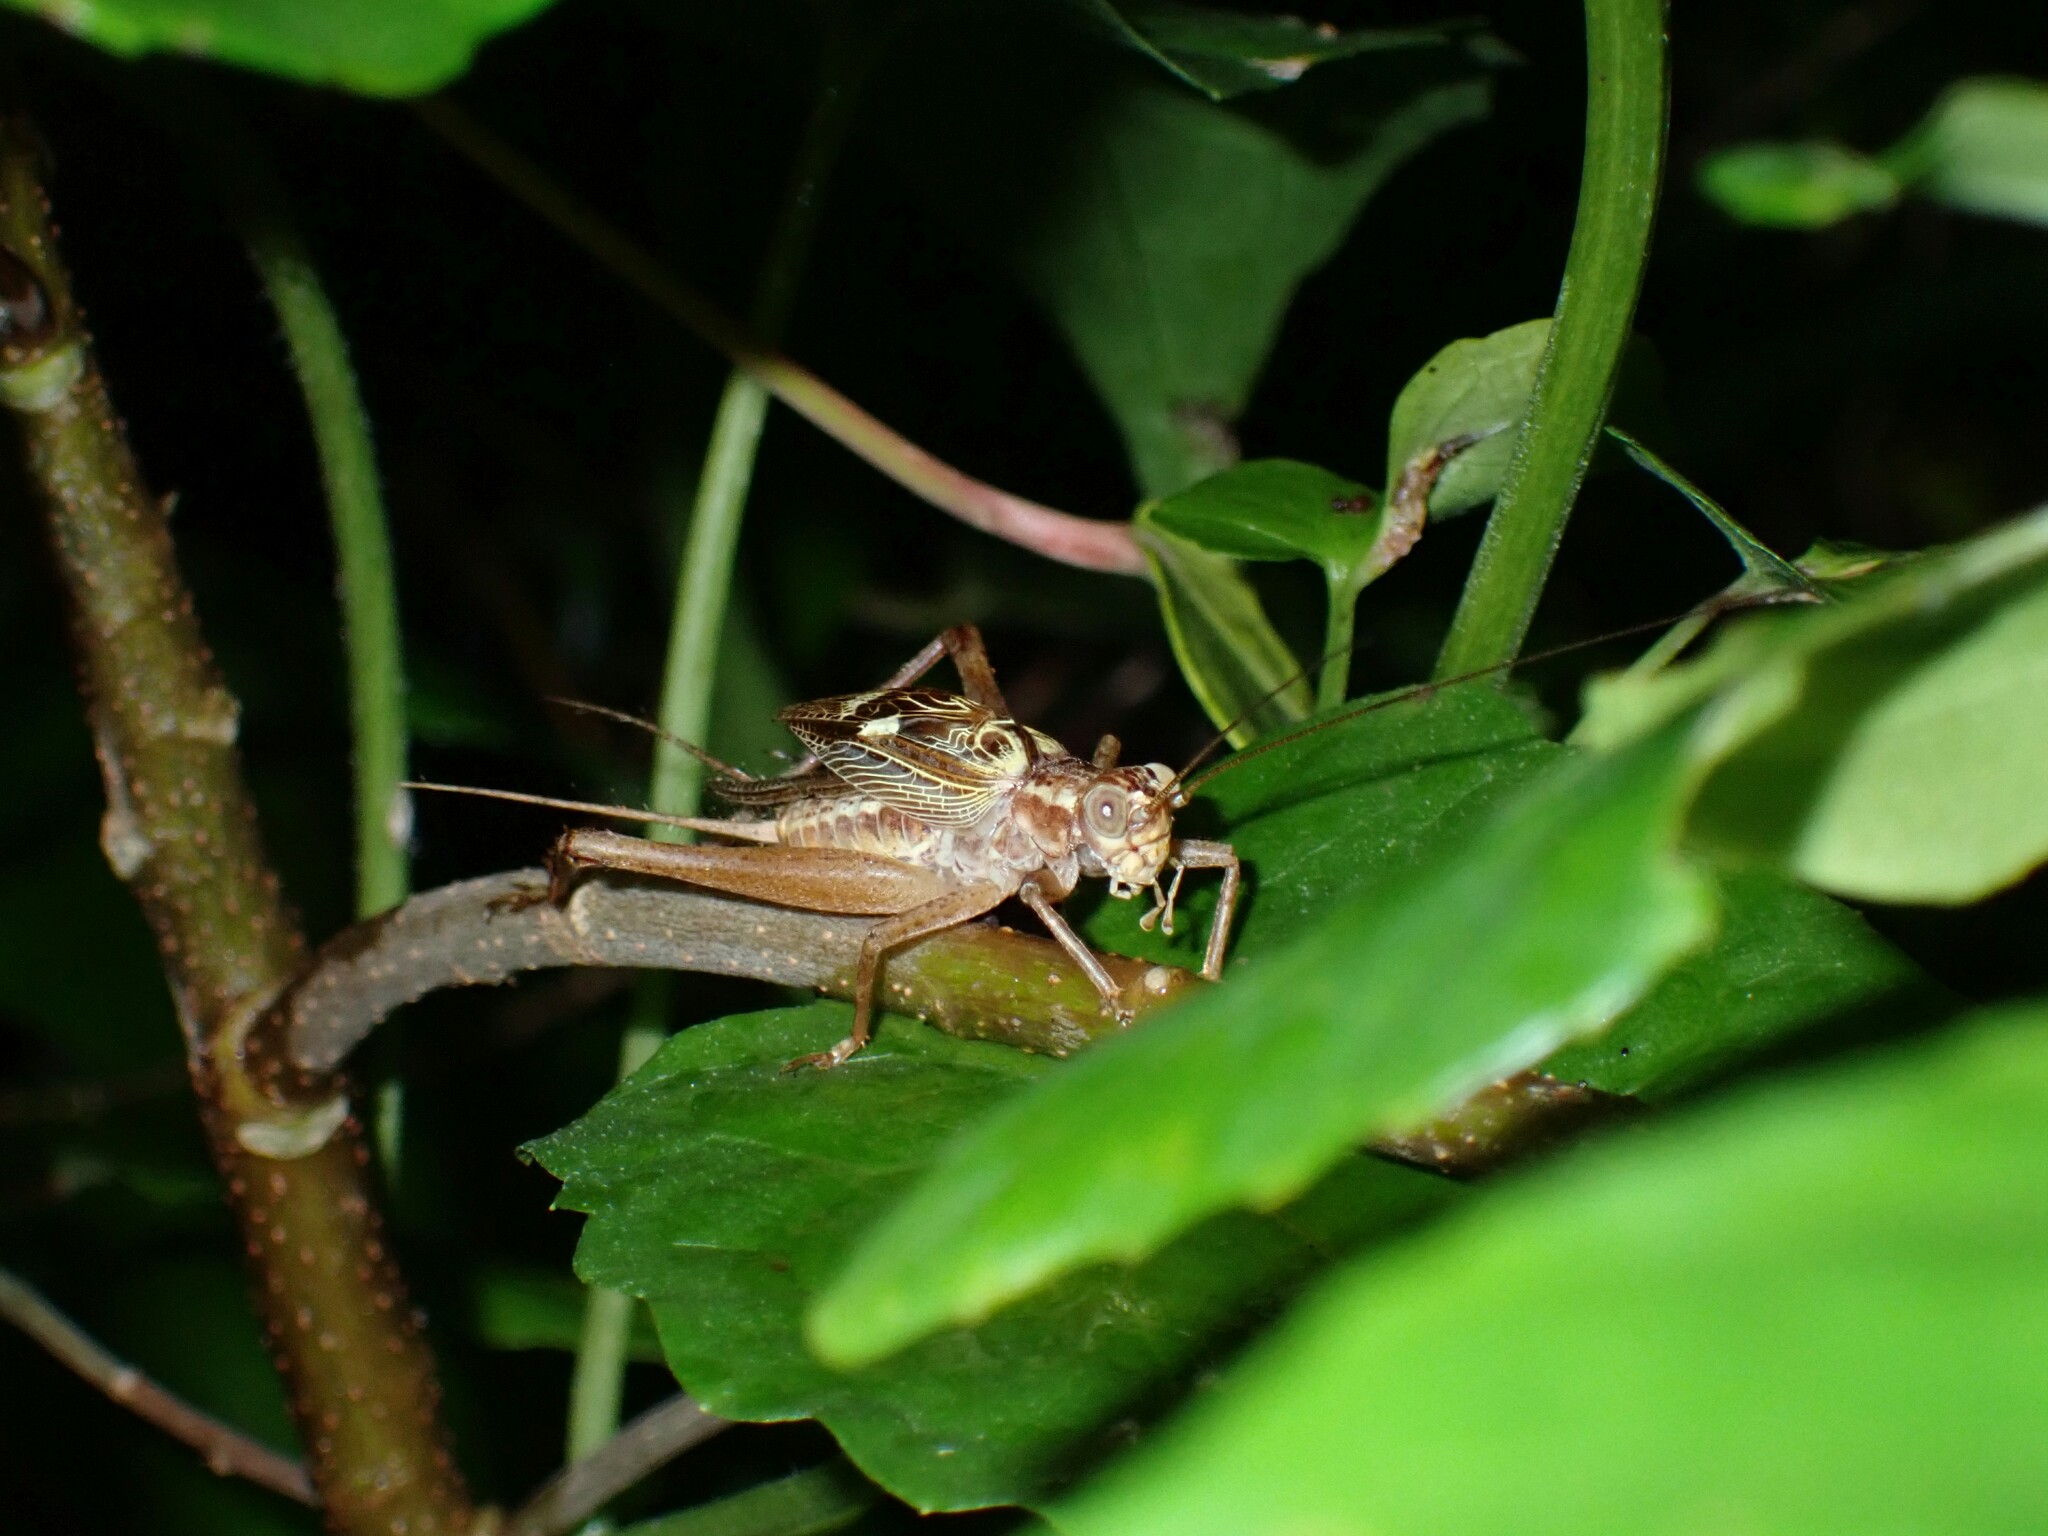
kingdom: Animalia
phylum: Arthropoda
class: Insecta
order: Orthoptera
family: Gryllidae
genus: Cardiodactylus
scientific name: Cardiodactylus novaeguineae
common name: Sad cricket
